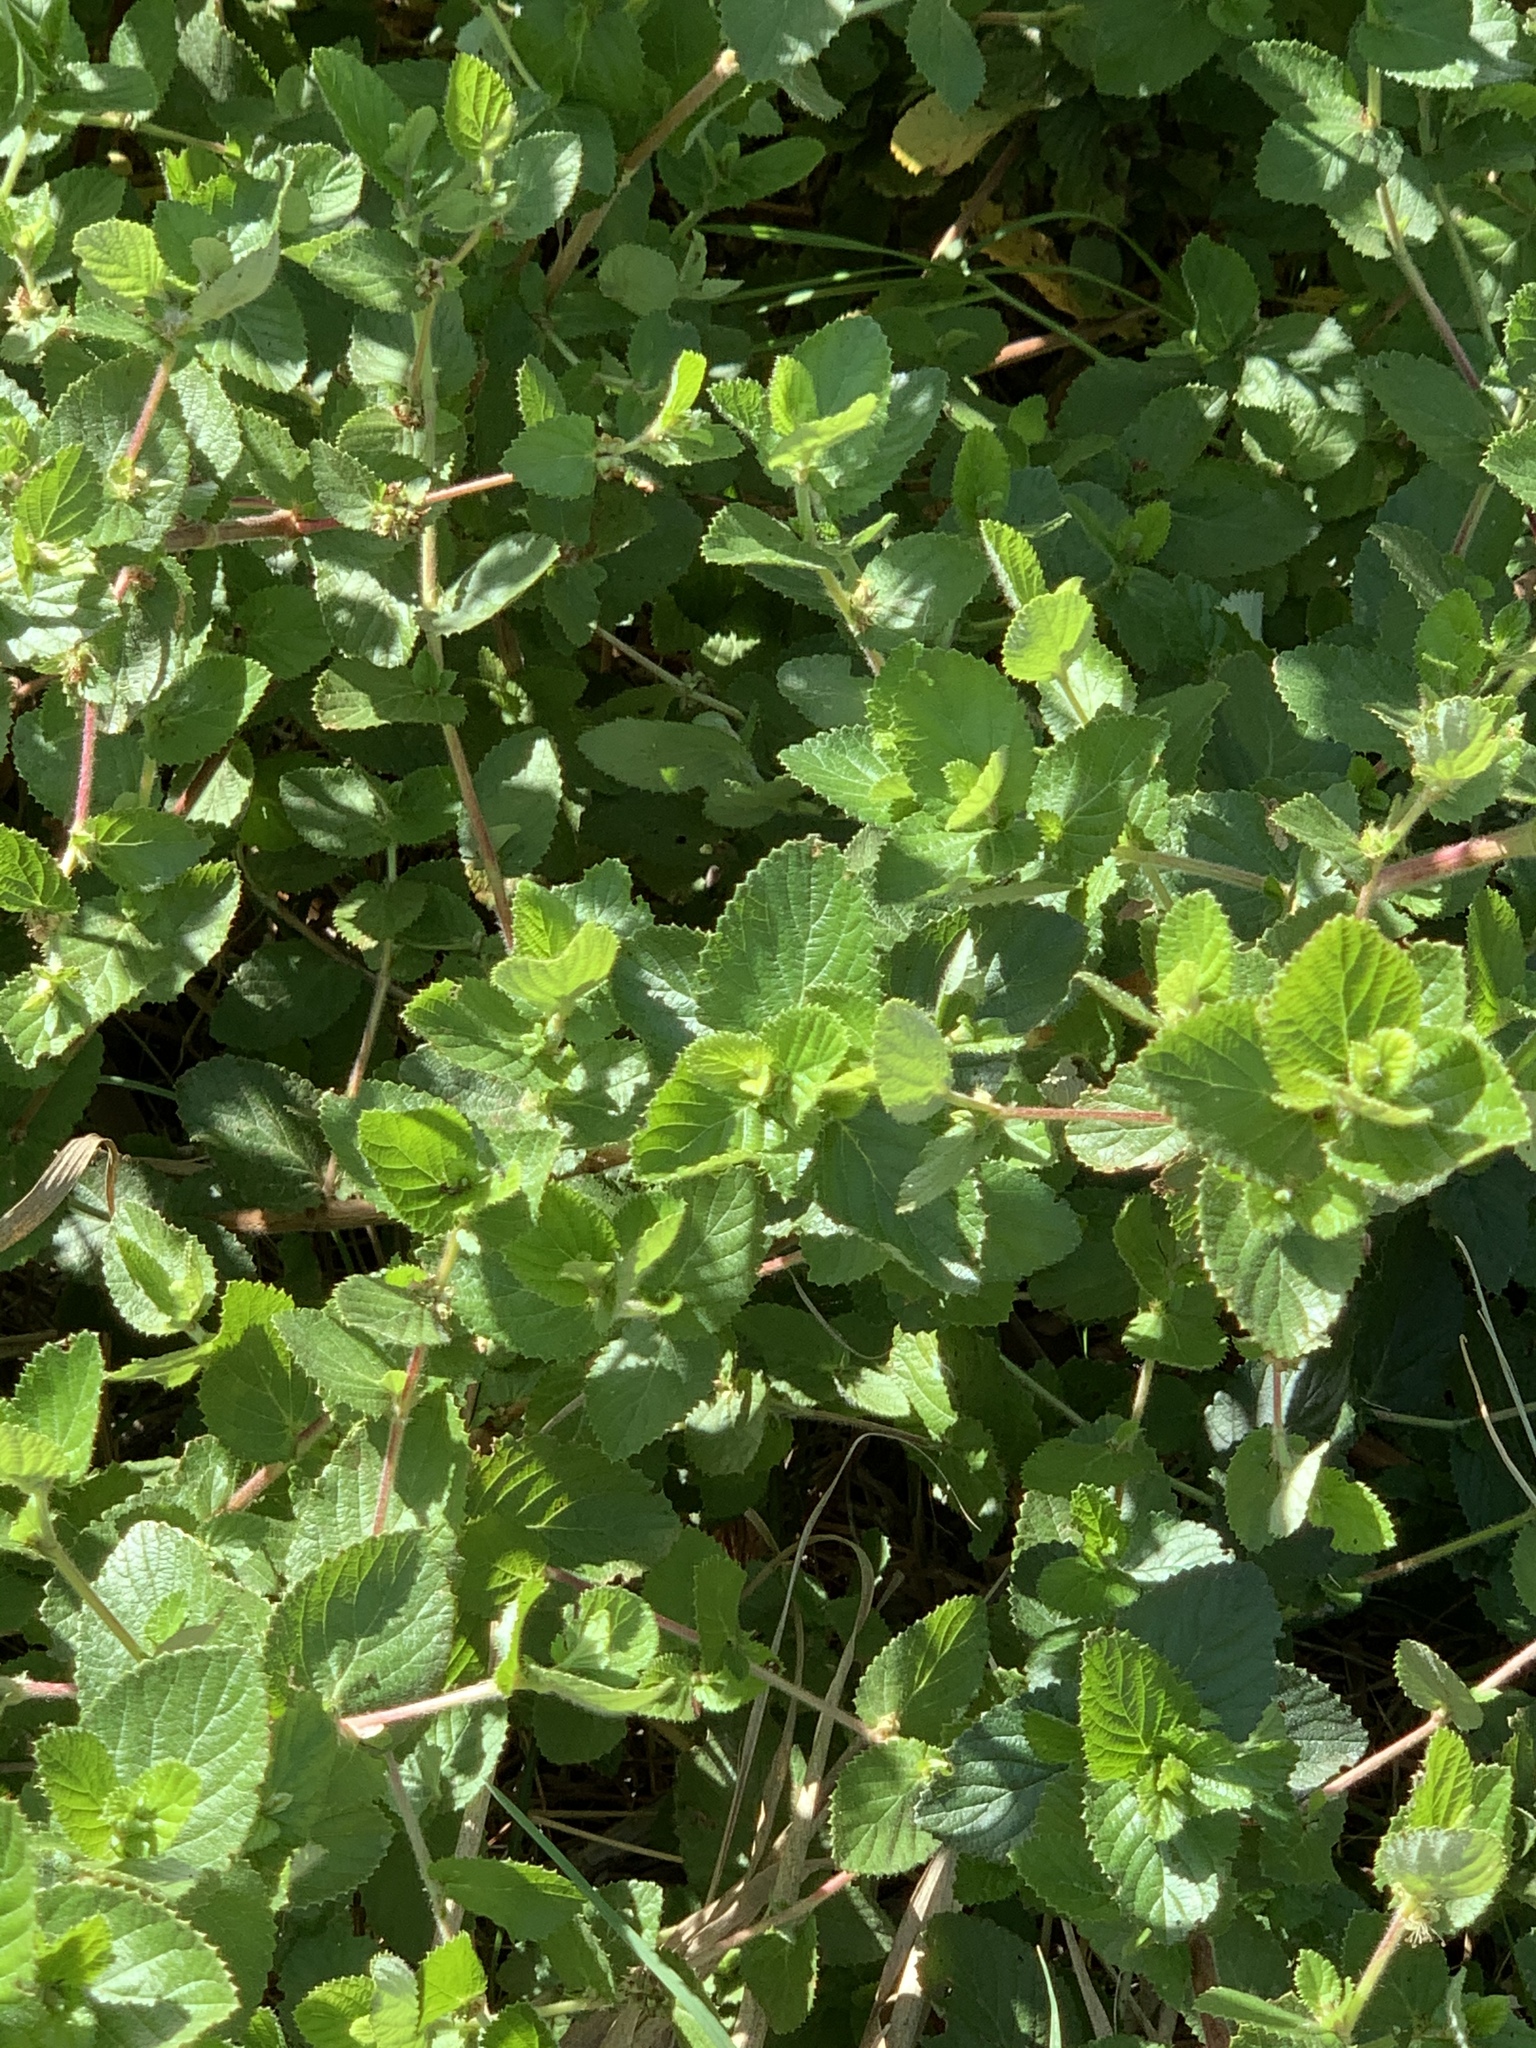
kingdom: Plantae
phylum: Tracheophyta
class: Magnoliopsida
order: Rosales
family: Rosaceae
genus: Cliffortia
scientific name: Cliffortia odorata
